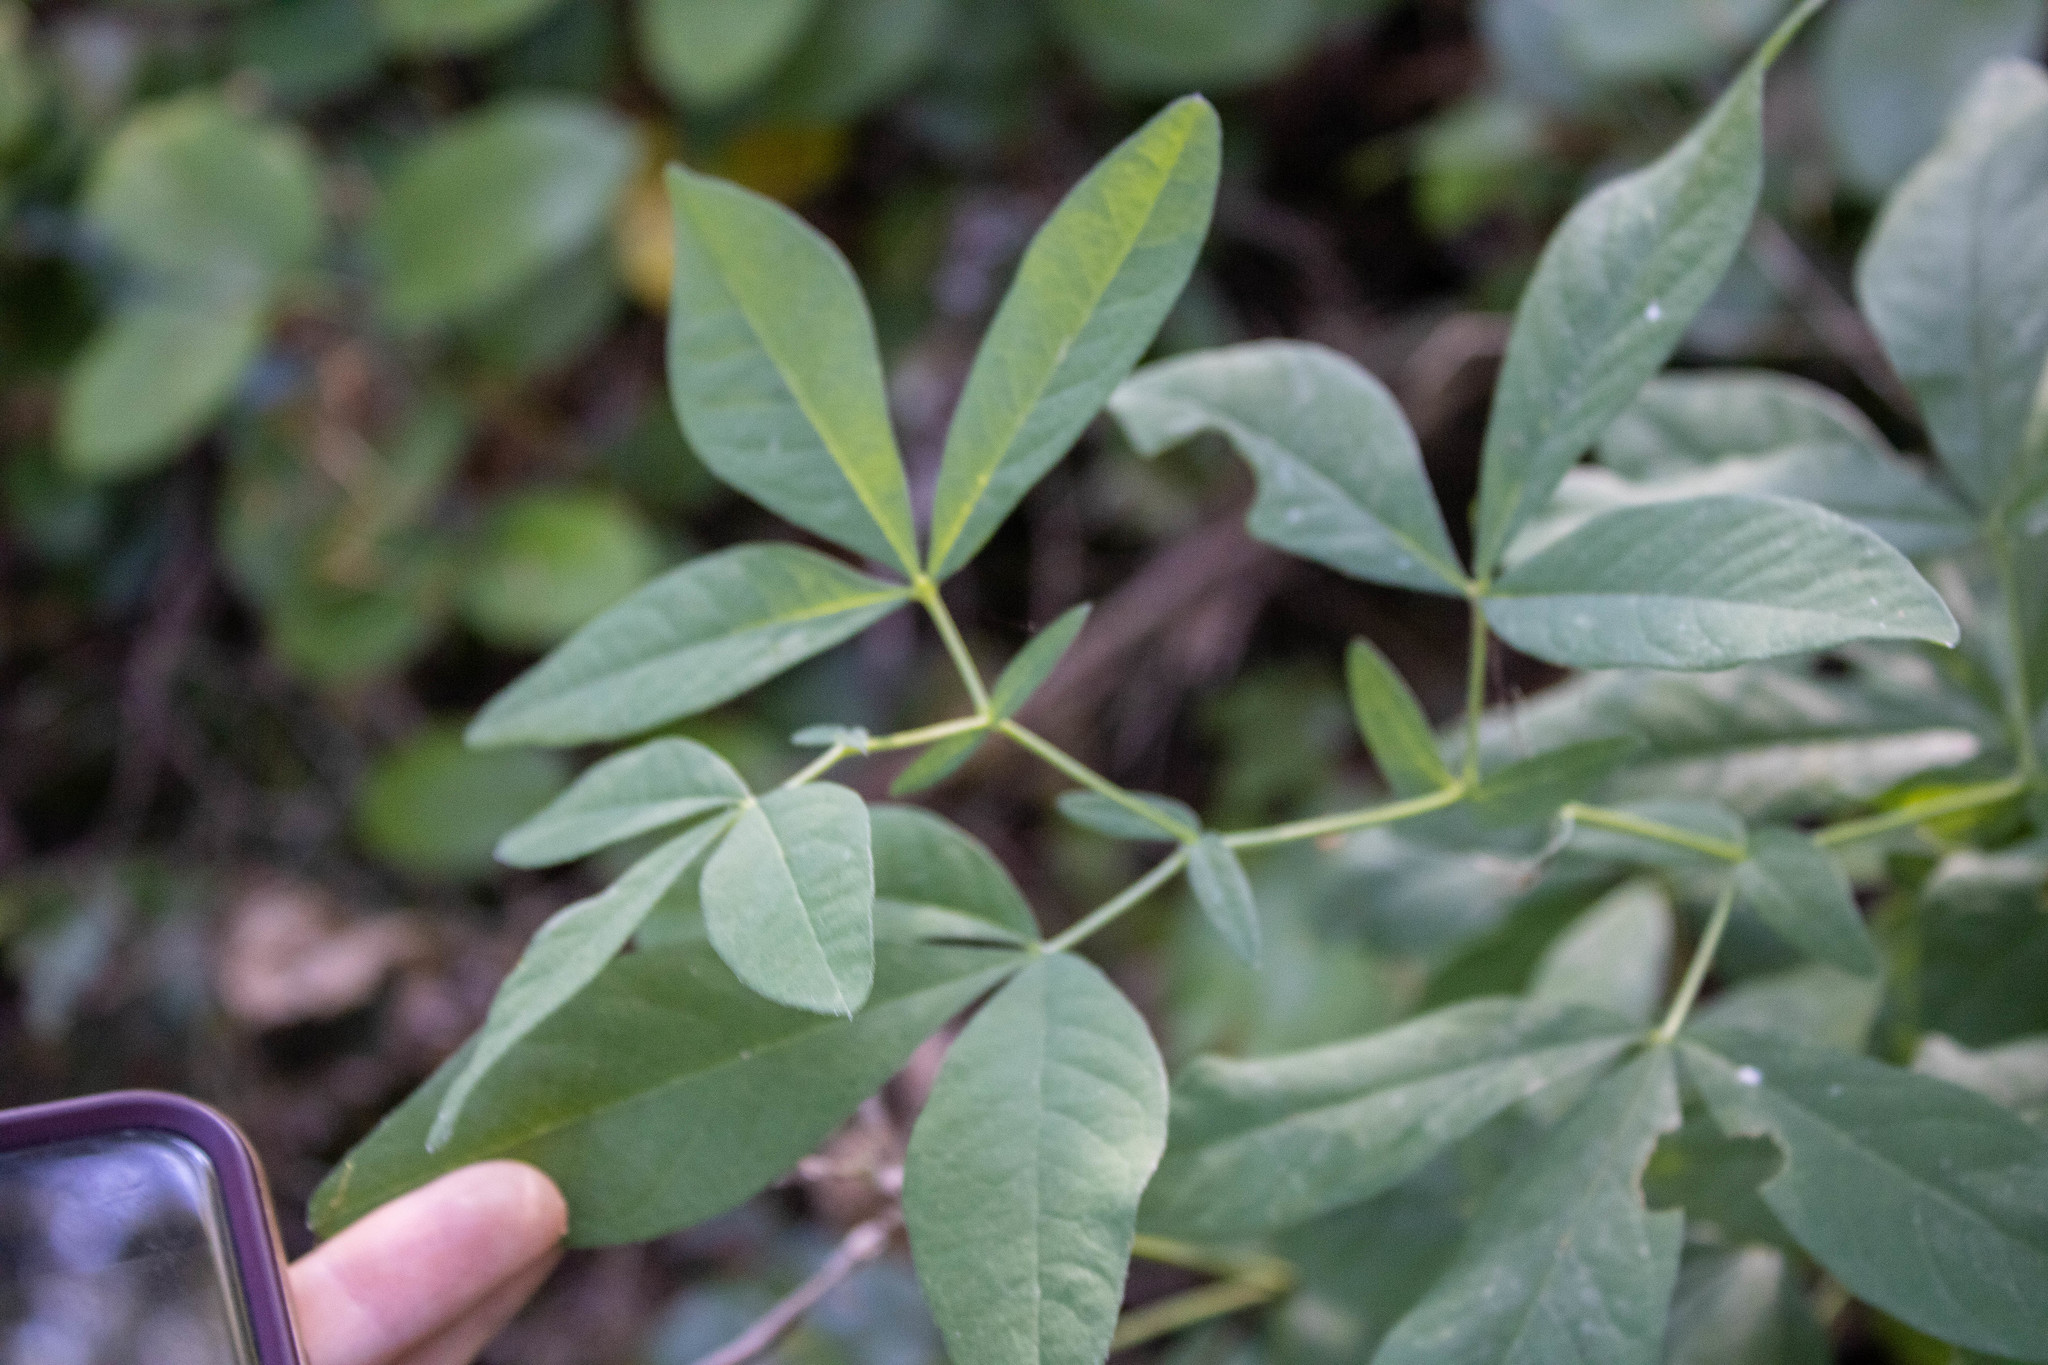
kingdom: Plantae
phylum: Tracheophyta
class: Magnoliopsida
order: Fabales
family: Fabaceae
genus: Thermopsis
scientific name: Thermopsis gracilis
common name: Slender golden-banner
